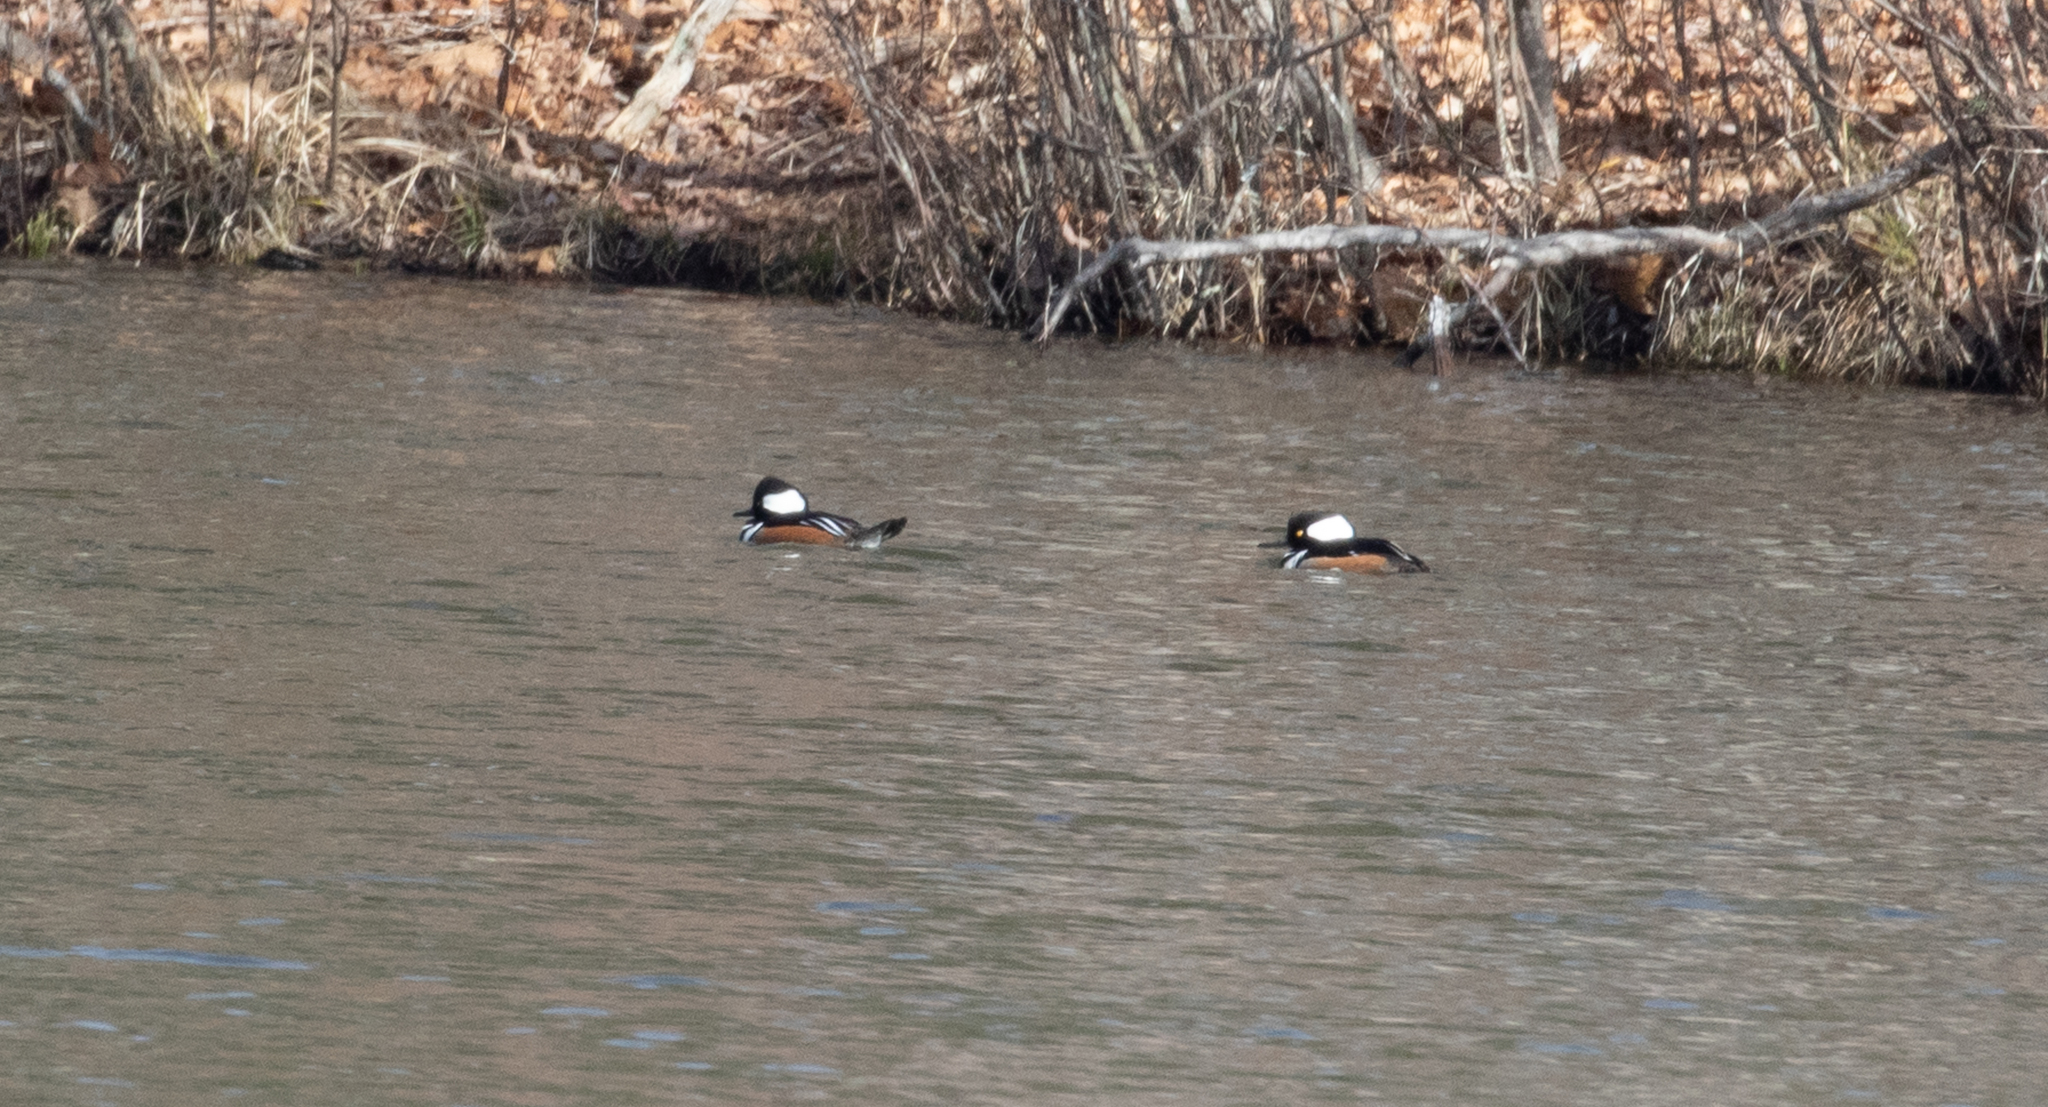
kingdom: Animalia
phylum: Chordata
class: Aves
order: Anseriformes
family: Anatidae
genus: Lophodytes
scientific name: Lophodytes cucullatus
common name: Hooded merganser
